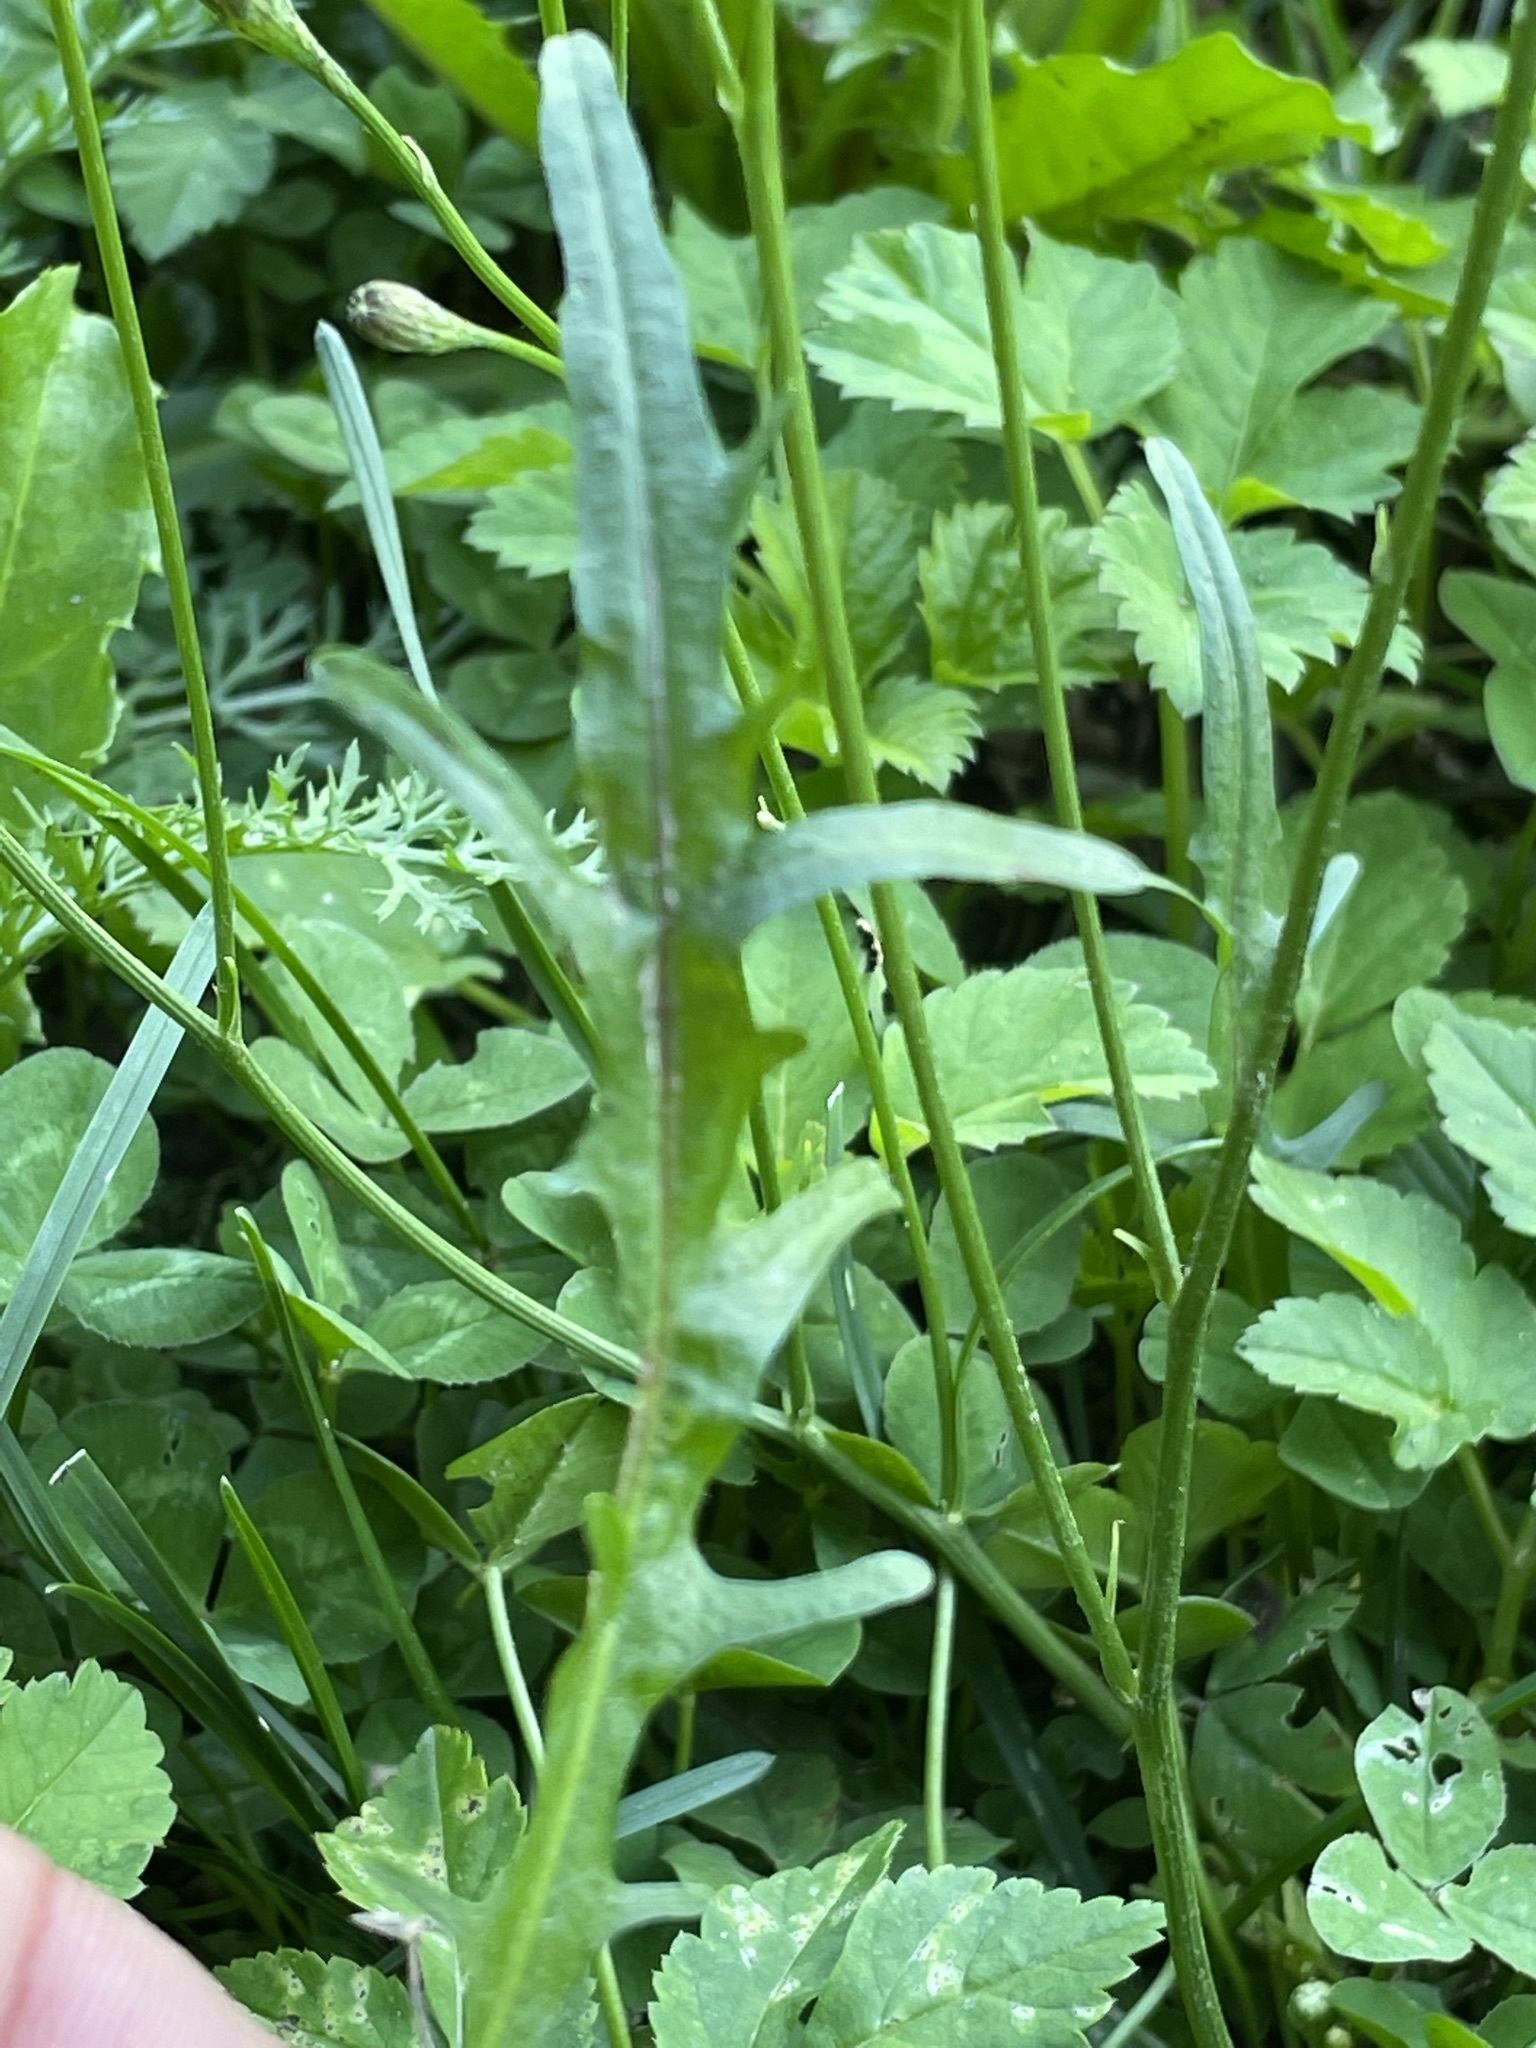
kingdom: Plantae
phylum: Tracheophyta
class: Magnoliopsida
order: Asterales
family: Asteraceae
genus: Scorzoneroides
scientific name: Scorzoneroides autumnalis
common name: Autumn hawkbit
